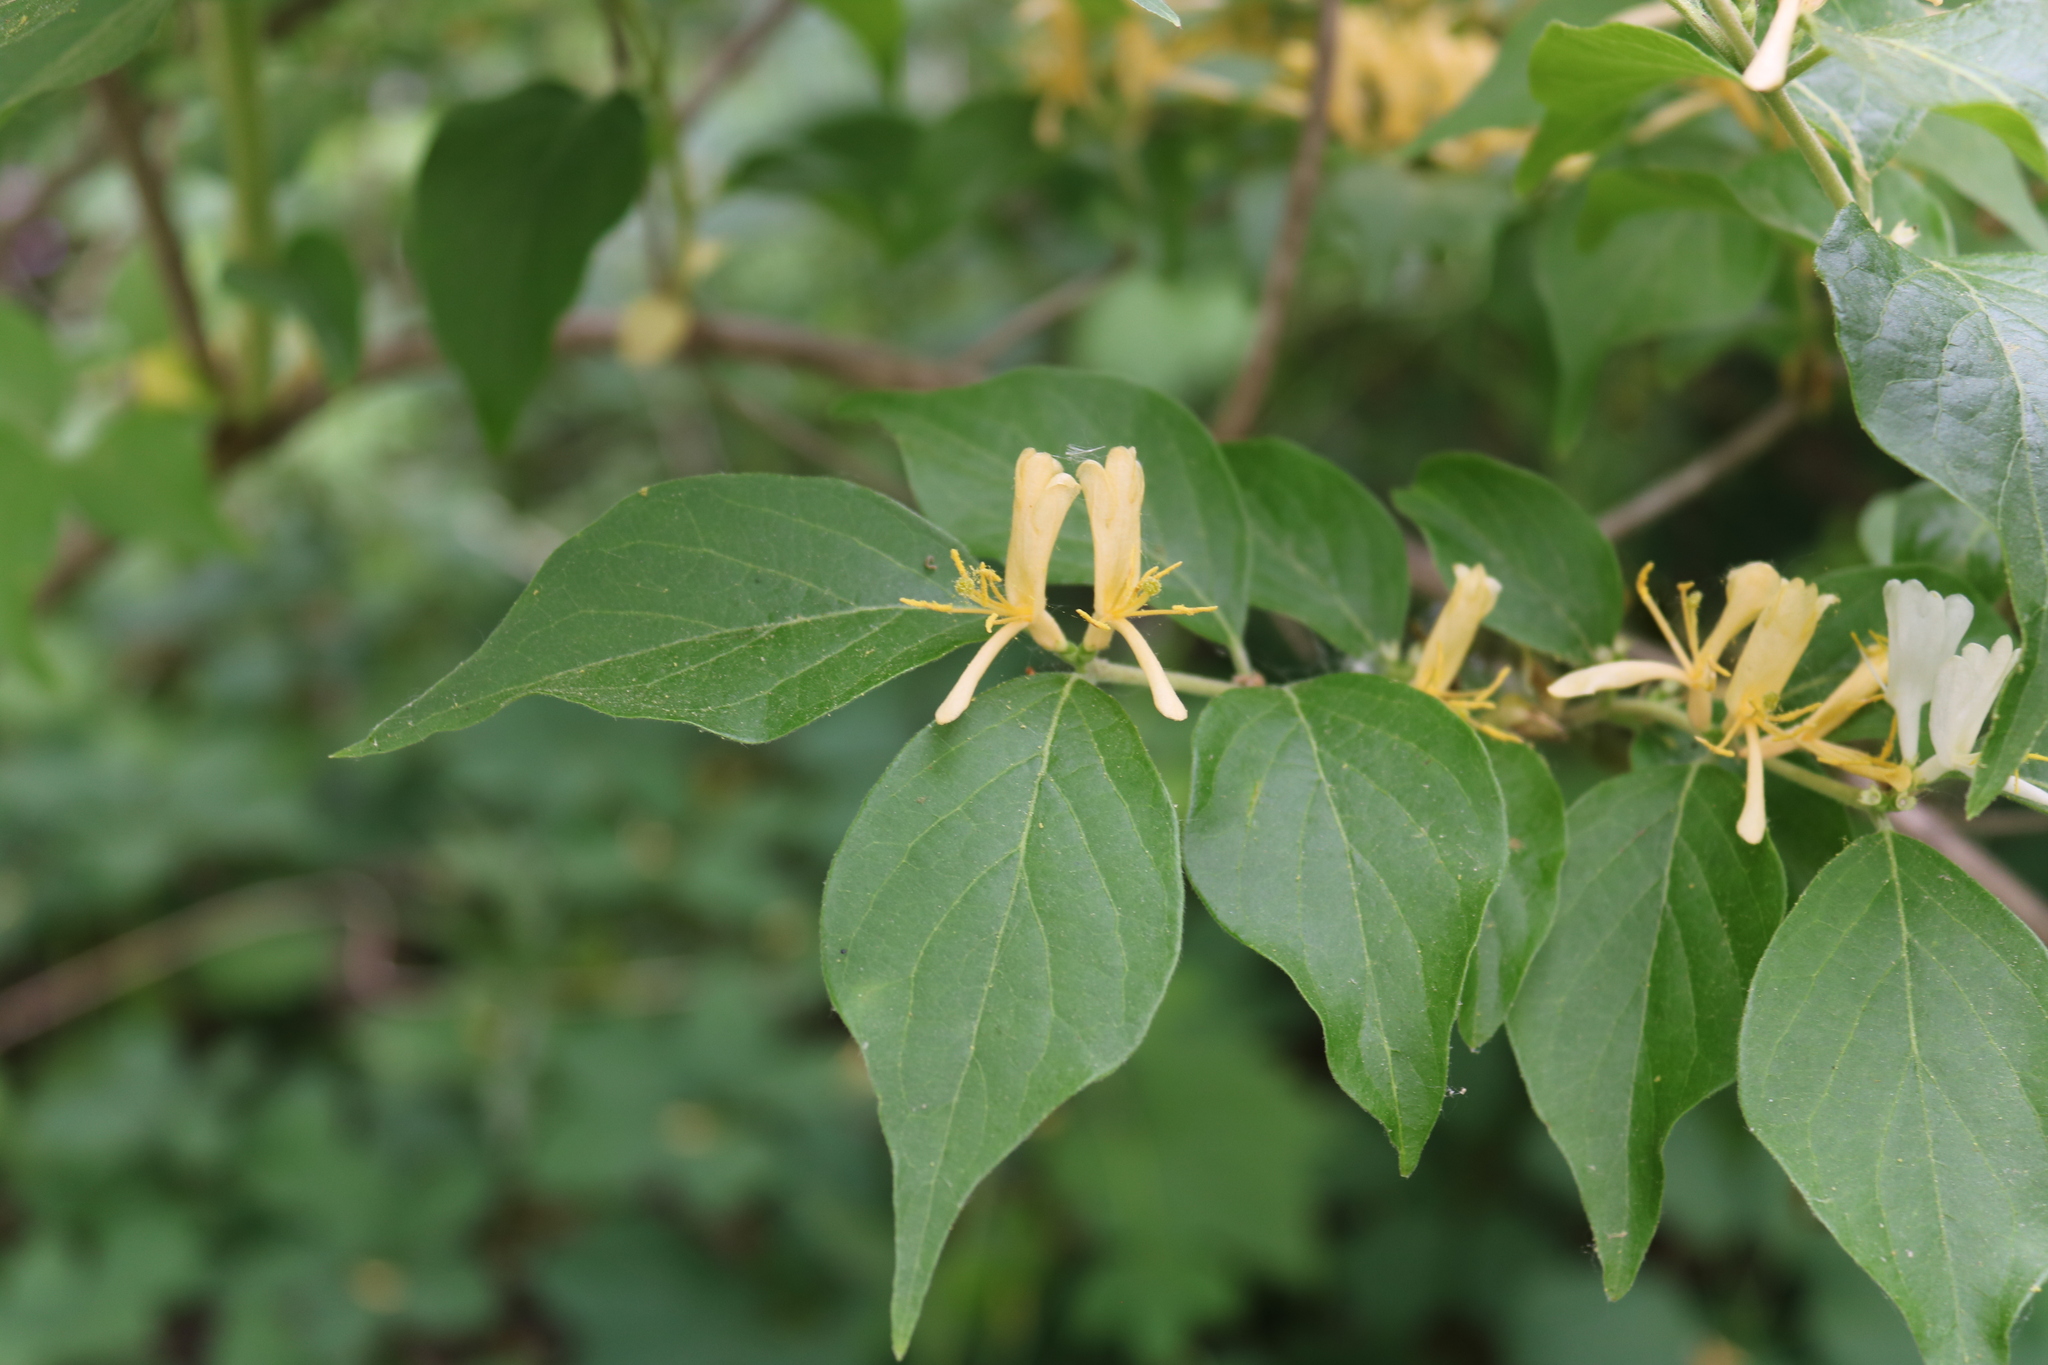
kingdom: Plantae
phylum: Tracheophyta
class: Magnoliopsida
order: Dipsacales
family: Caprifoliaceae
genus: Lonicera
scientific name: Lonicera maackii
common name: Amur honeysuckle
